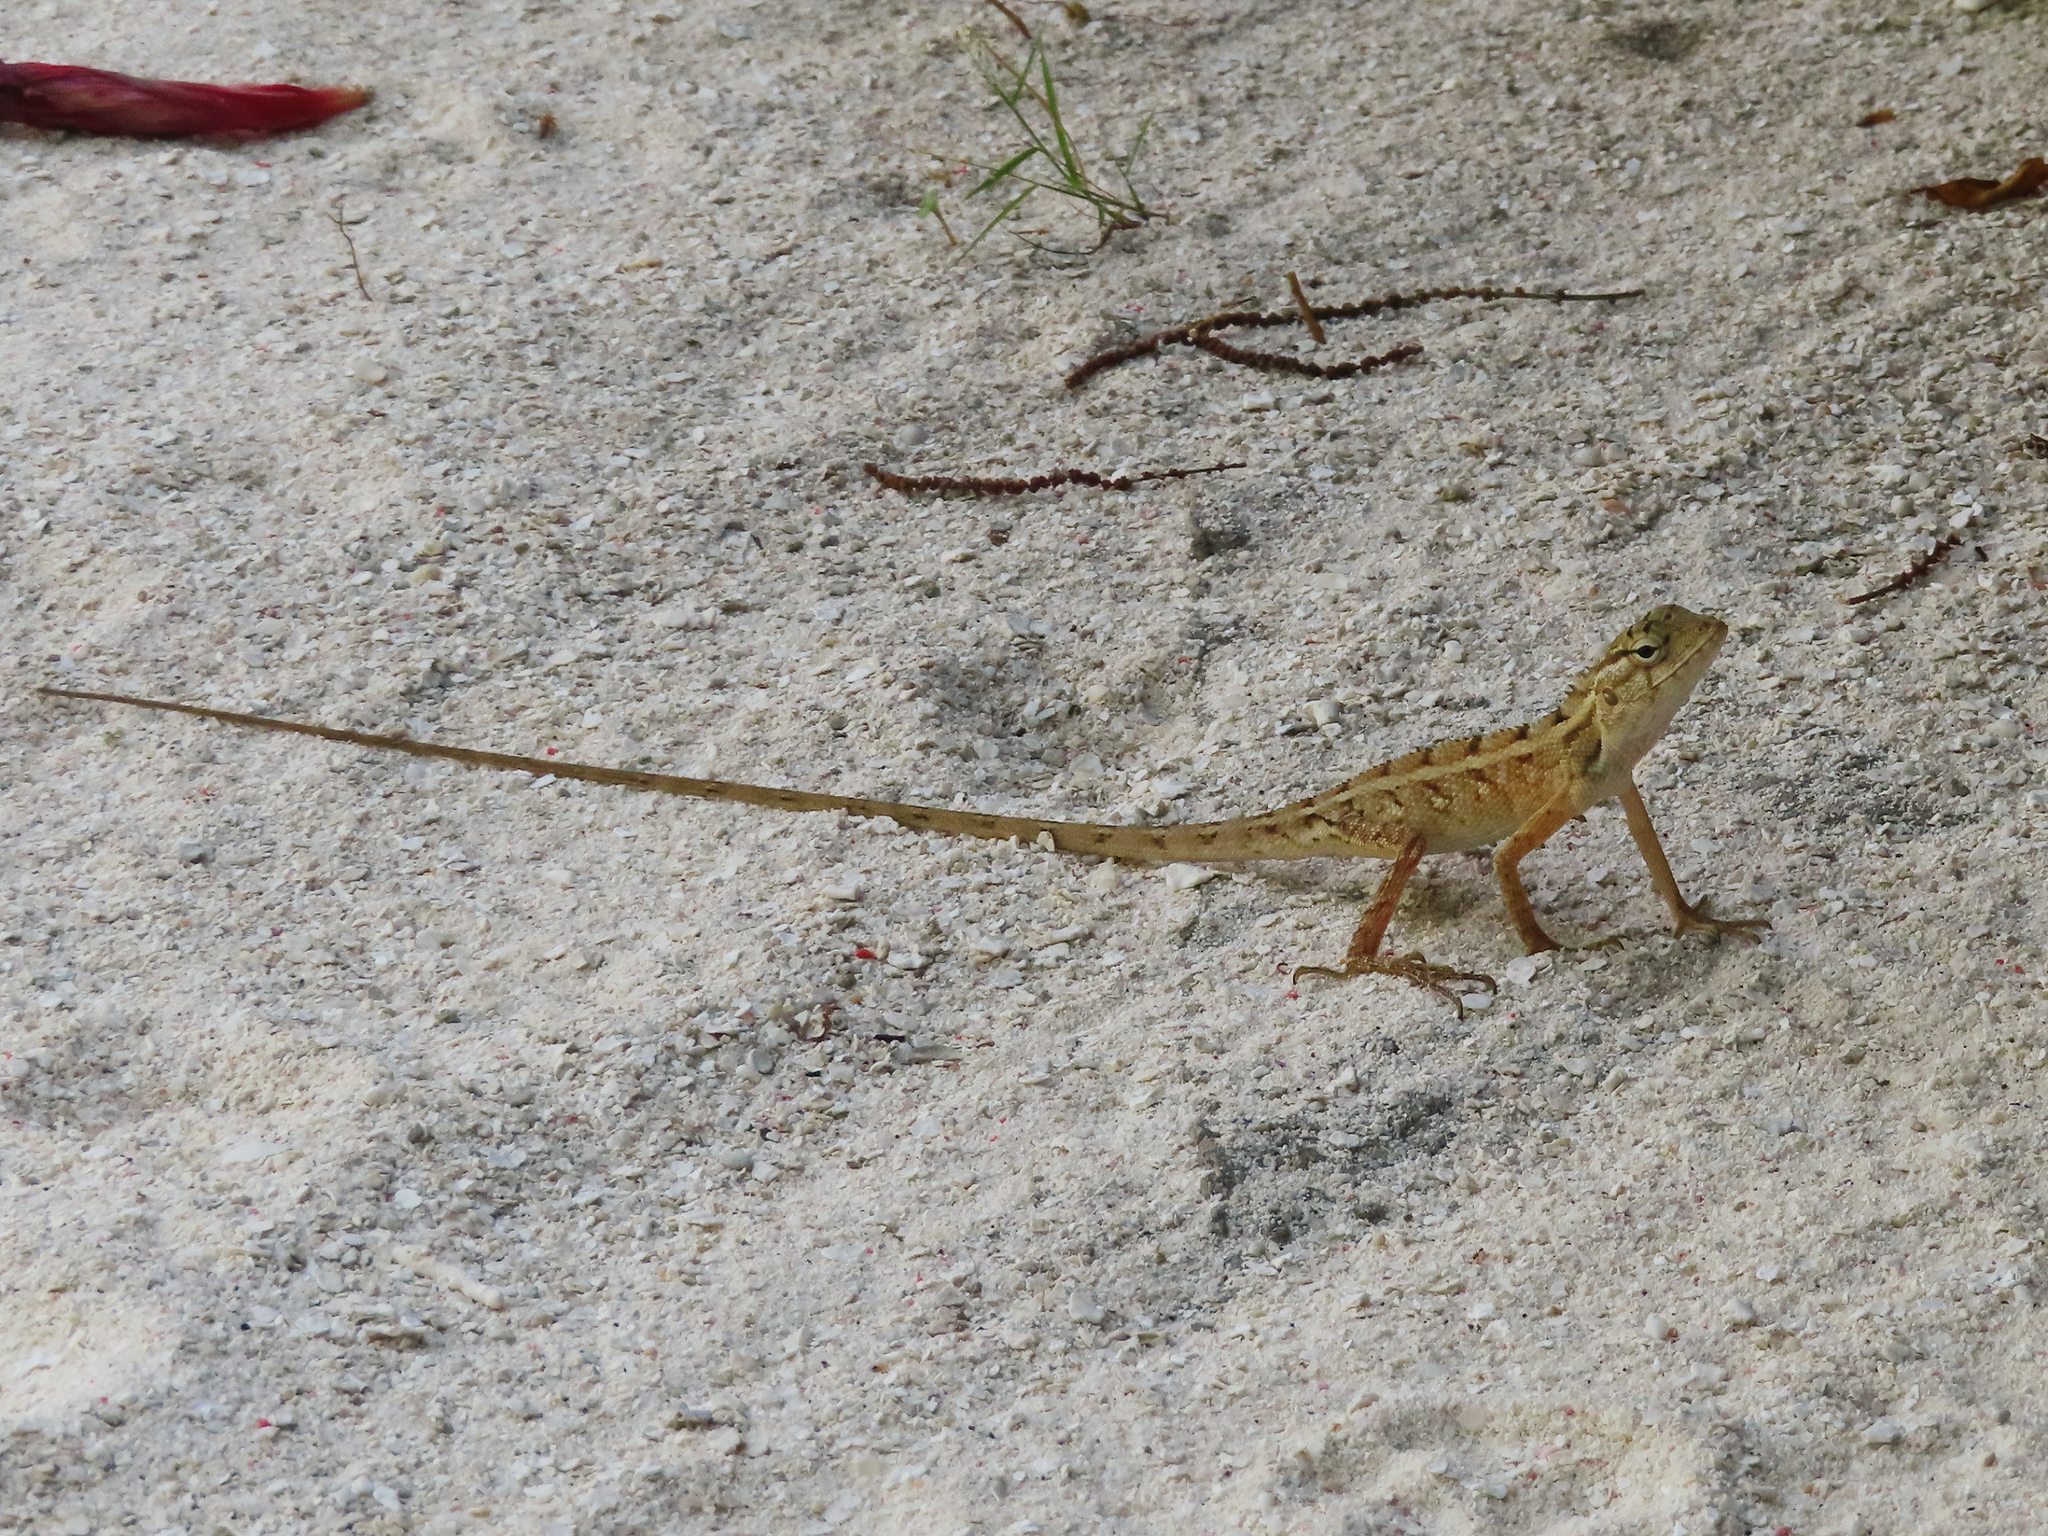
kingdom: Animalia
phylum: Chordata
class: Squamata
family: Agamidae
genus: Calotes
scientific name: Calotes versicolor
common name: Oriental garden lizard
